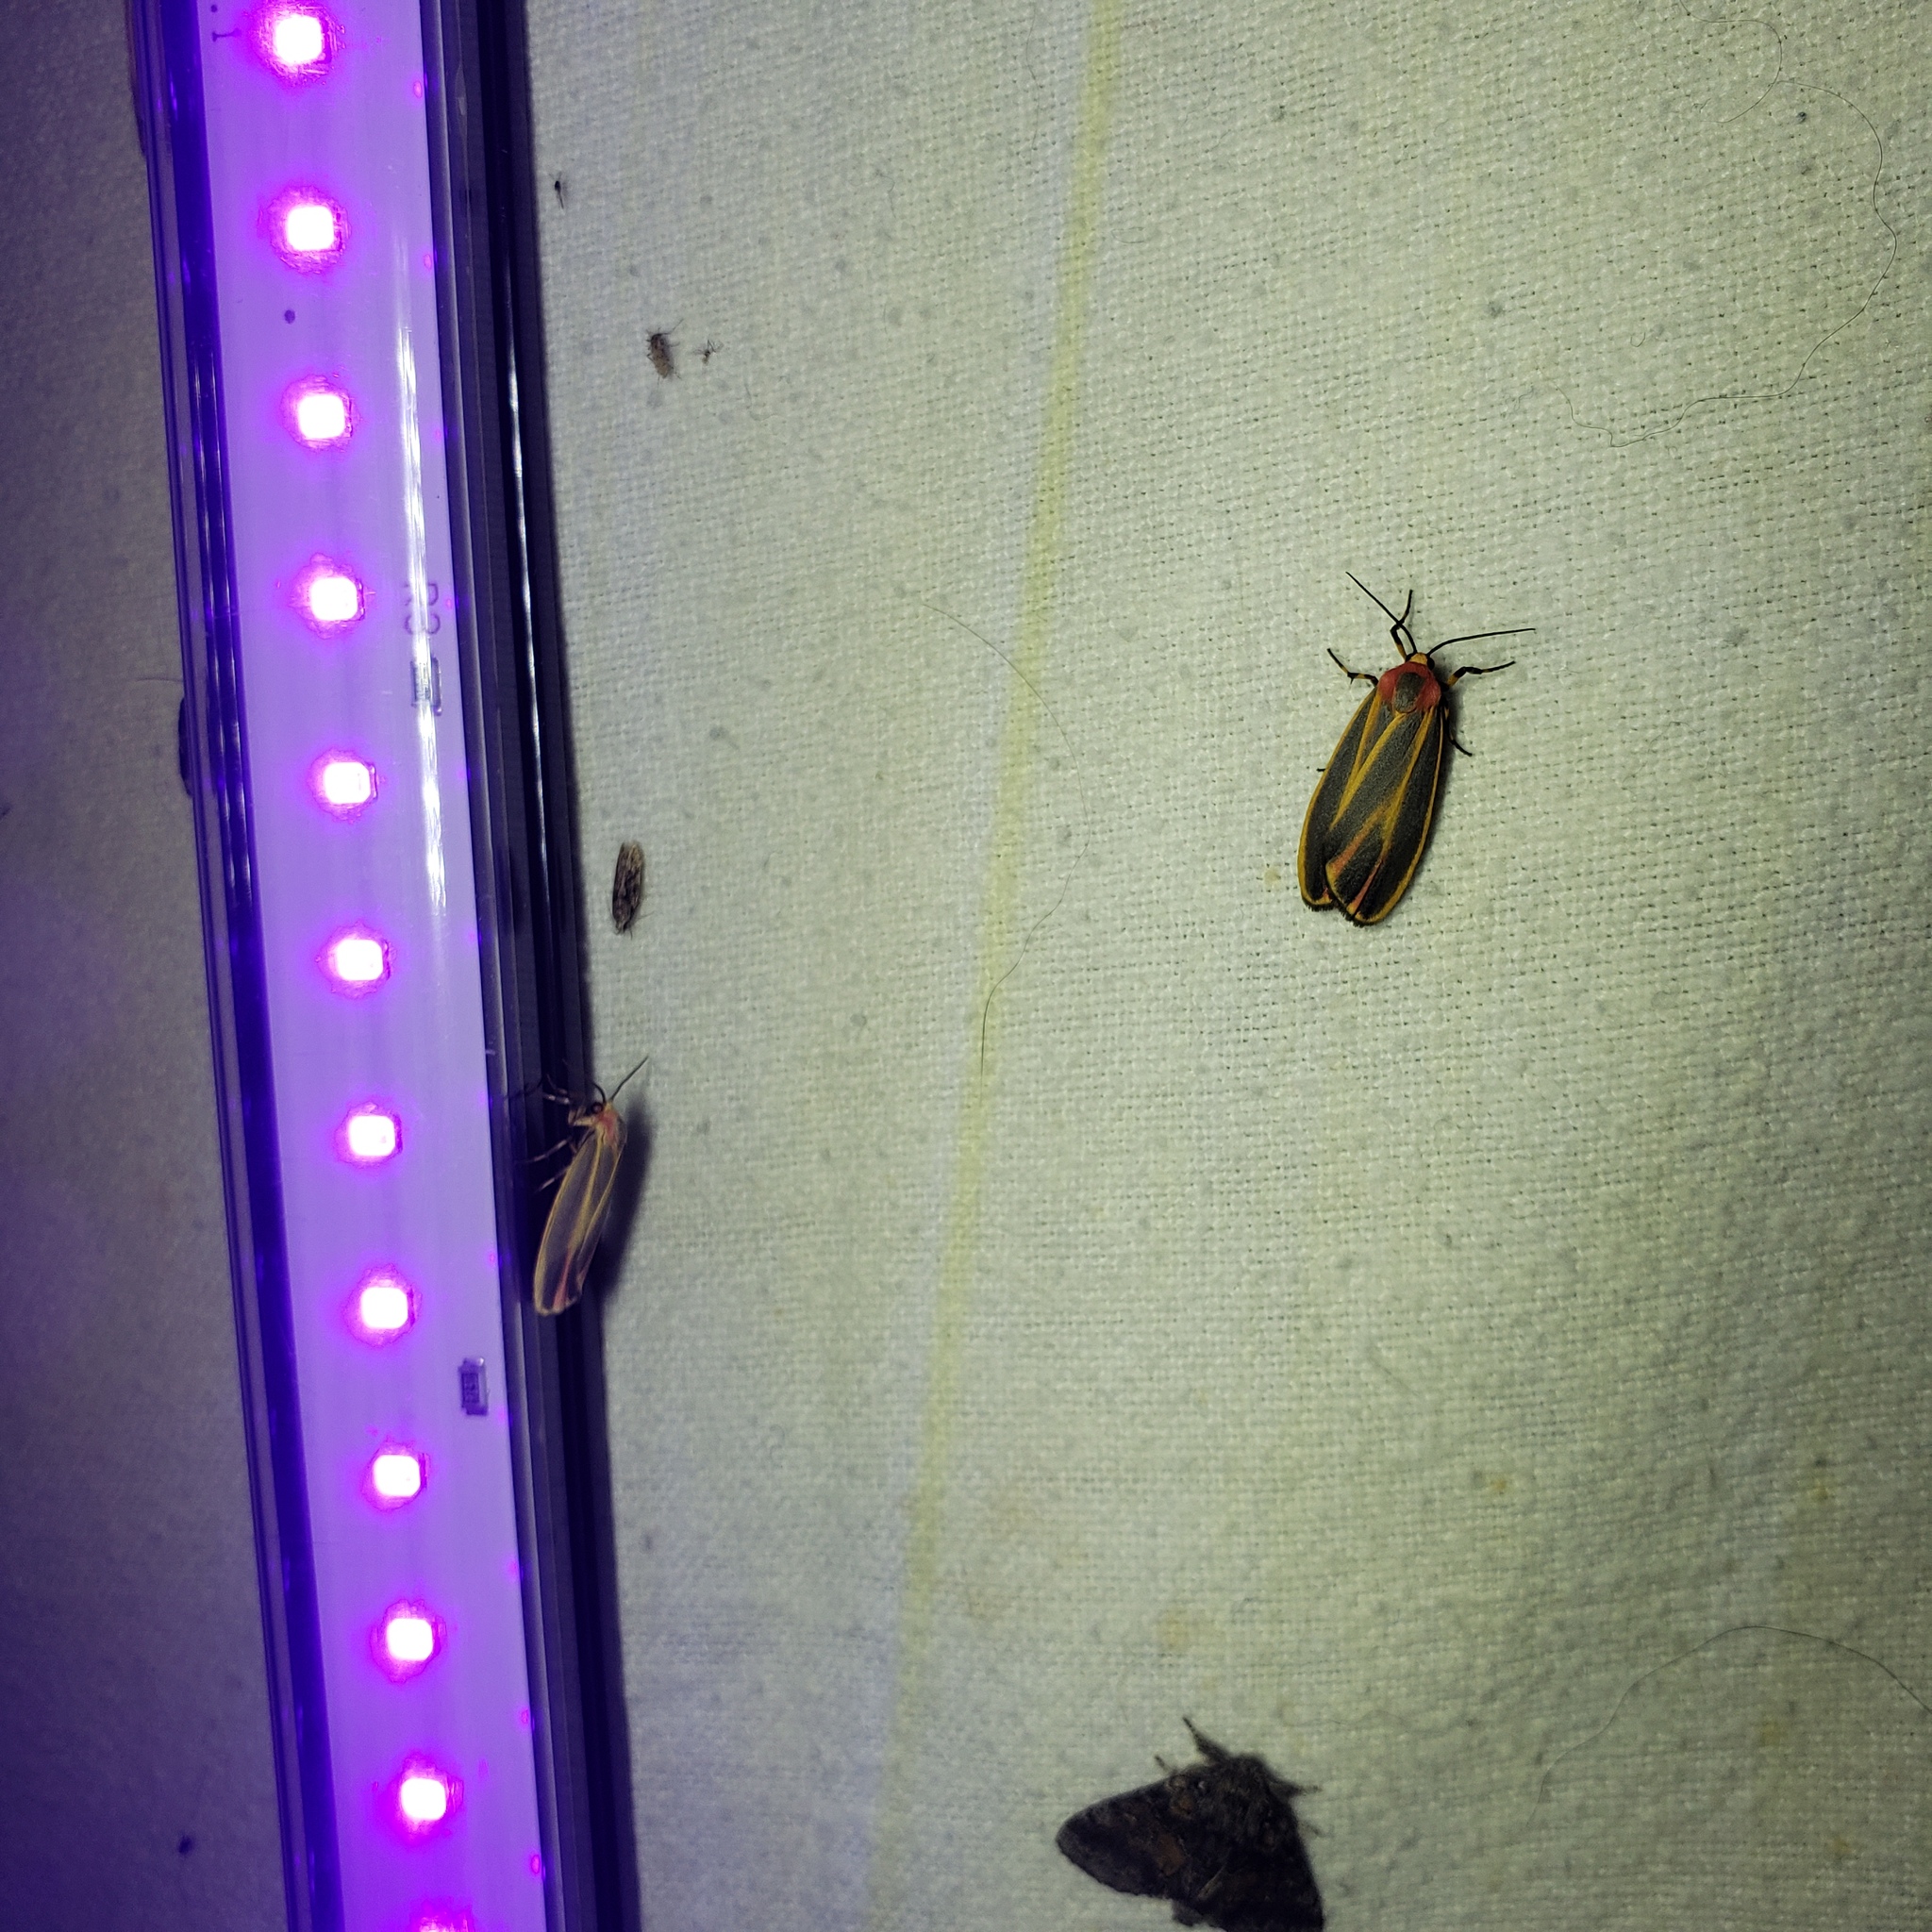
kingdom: Animalia
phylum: Arthropoda
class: Insecta
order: Lepidoptera
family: Erebidae
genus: Hypoprepia
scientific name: Hypoprepia fucosa
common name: Painted lichen moth
